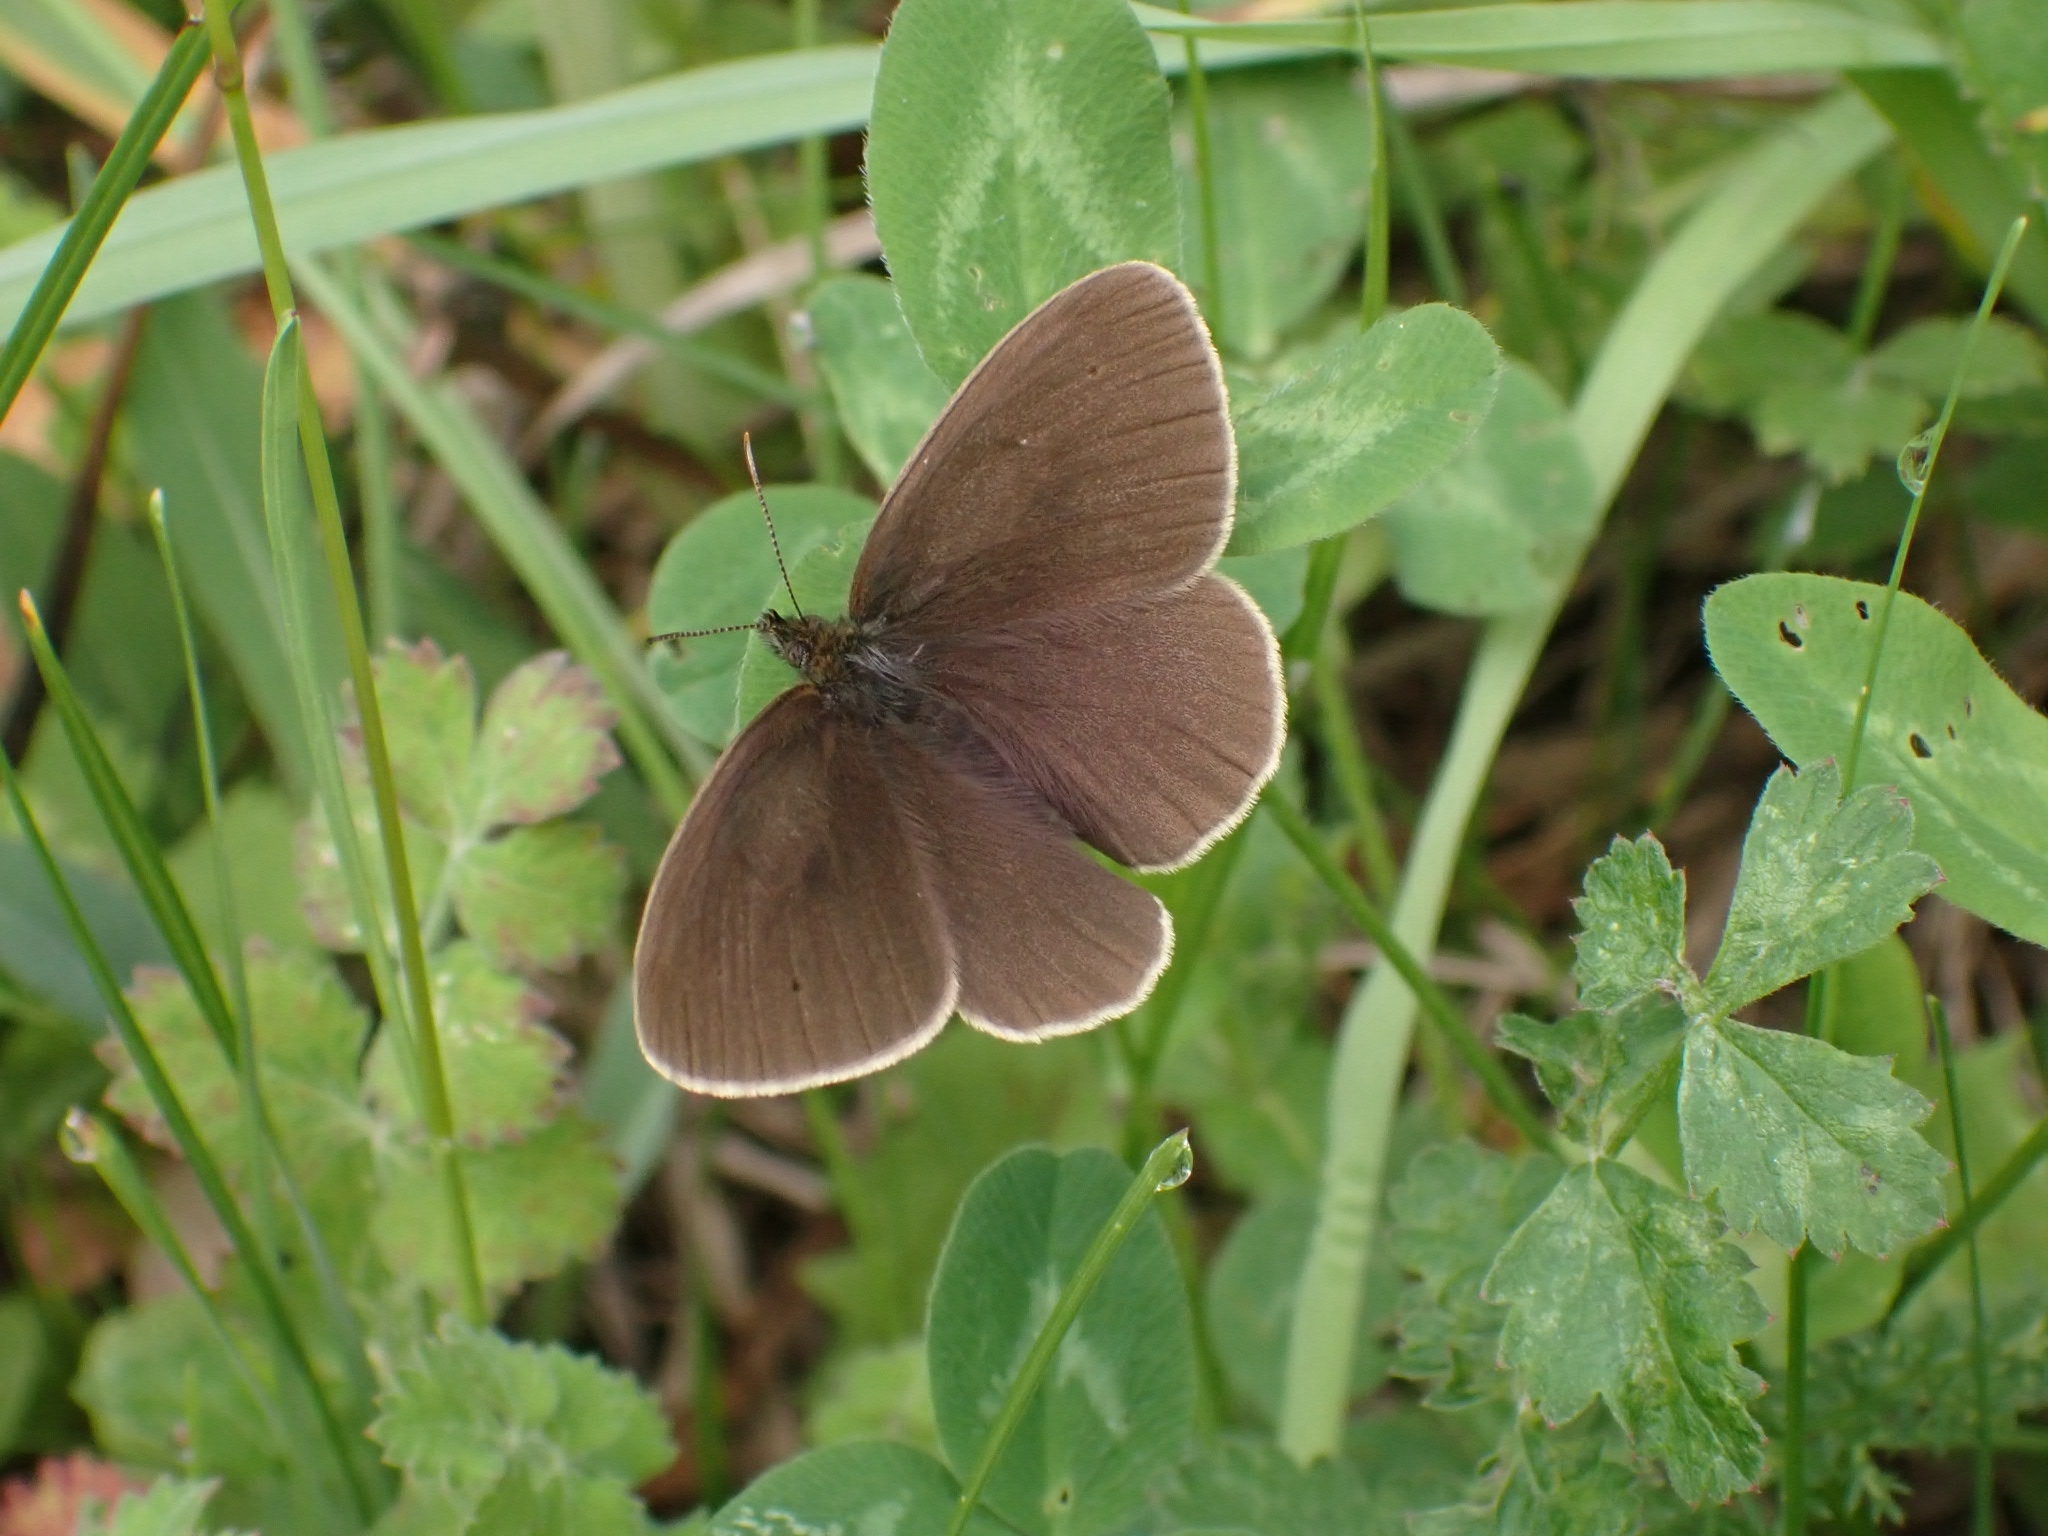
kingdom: Animalia
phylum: Arthropoda
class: Insecta
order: Lepidoptera
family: Nymphalidae
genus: Aphantopus
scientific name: Aphantopus hyperantus
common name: Ringlet
